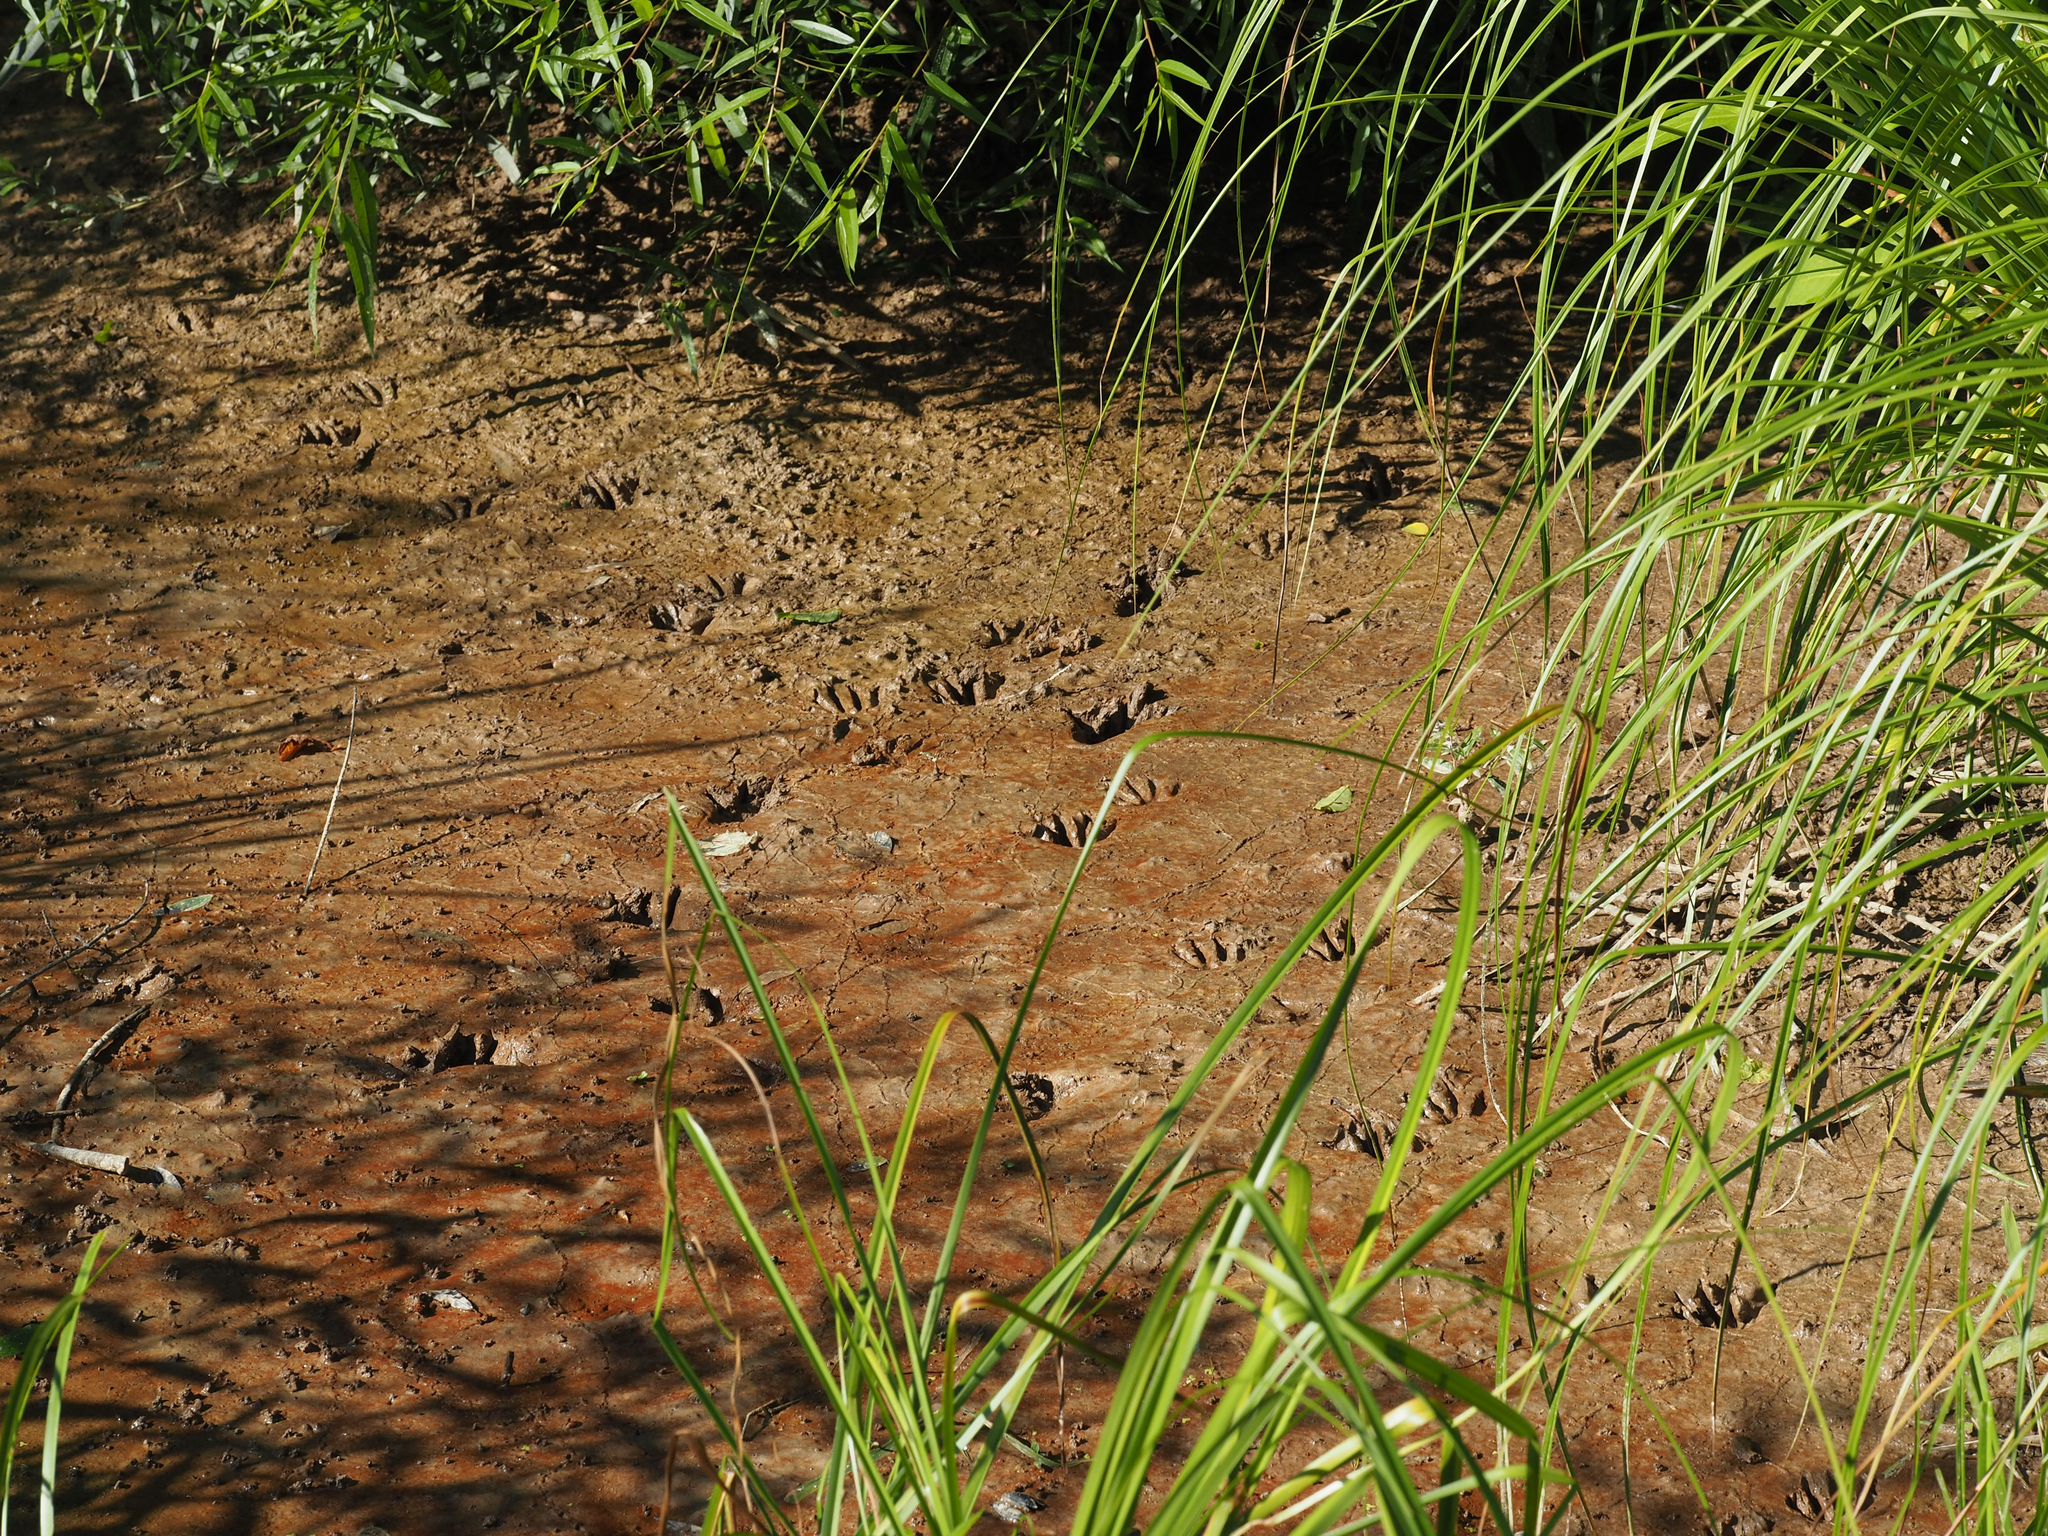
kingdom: Animalia
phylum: Chordata
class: Mammalia
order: Carnivora
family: Procyonidae
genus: Procyon
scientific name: Procyon lotor
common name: Raccoon
